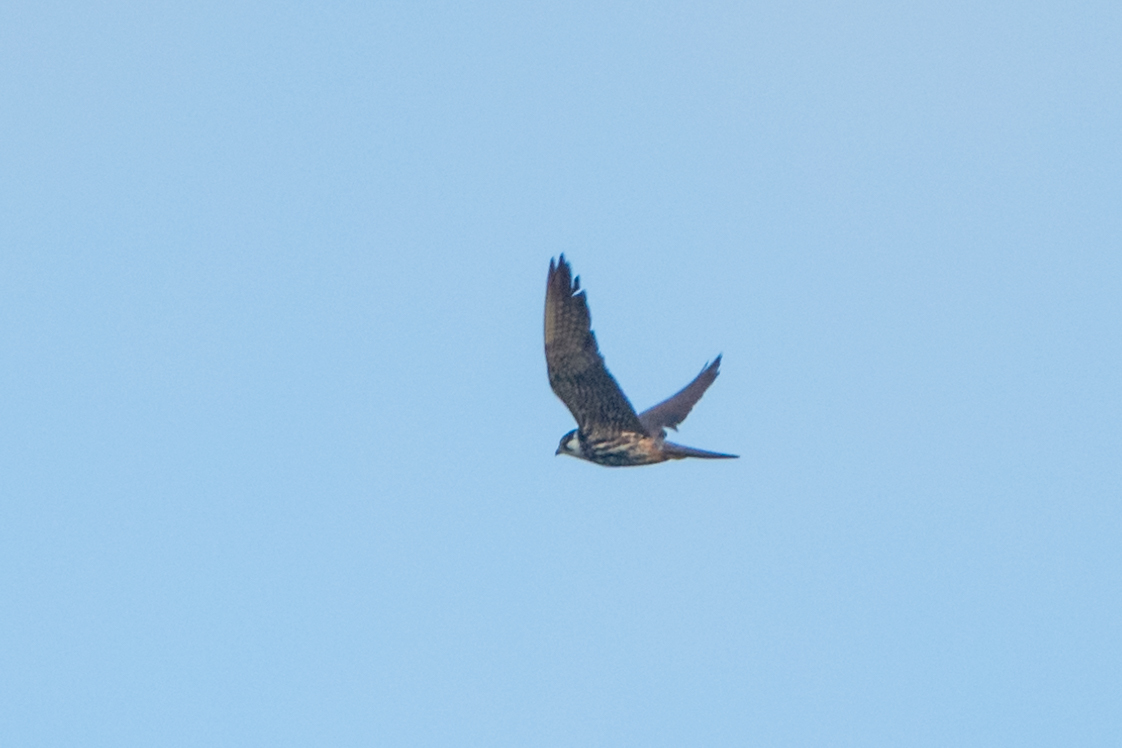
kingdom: Animalia
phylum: Chordata
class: Aves
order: Falconiformes
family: Falconidae
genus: Falco
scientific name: Falco subbuteo
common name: Eurasian hobby
